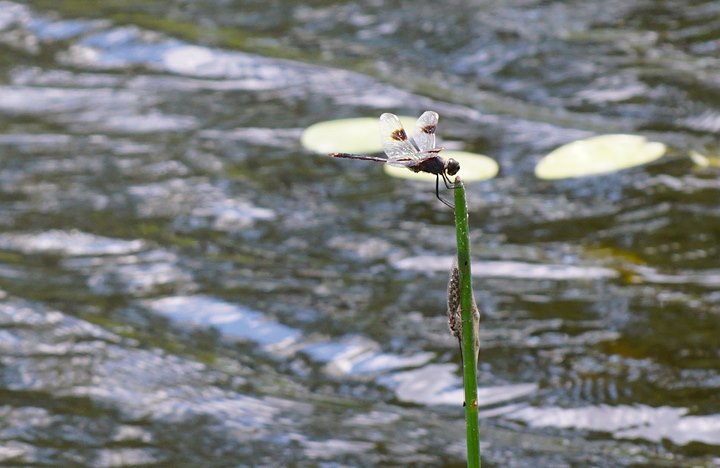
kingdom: Animalia
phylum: Arthropoda
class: Insecta
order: Odonata
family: Libellulidae
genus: Brachymesia
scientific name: Brachymesia gravida
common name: Four-spotted pennant
